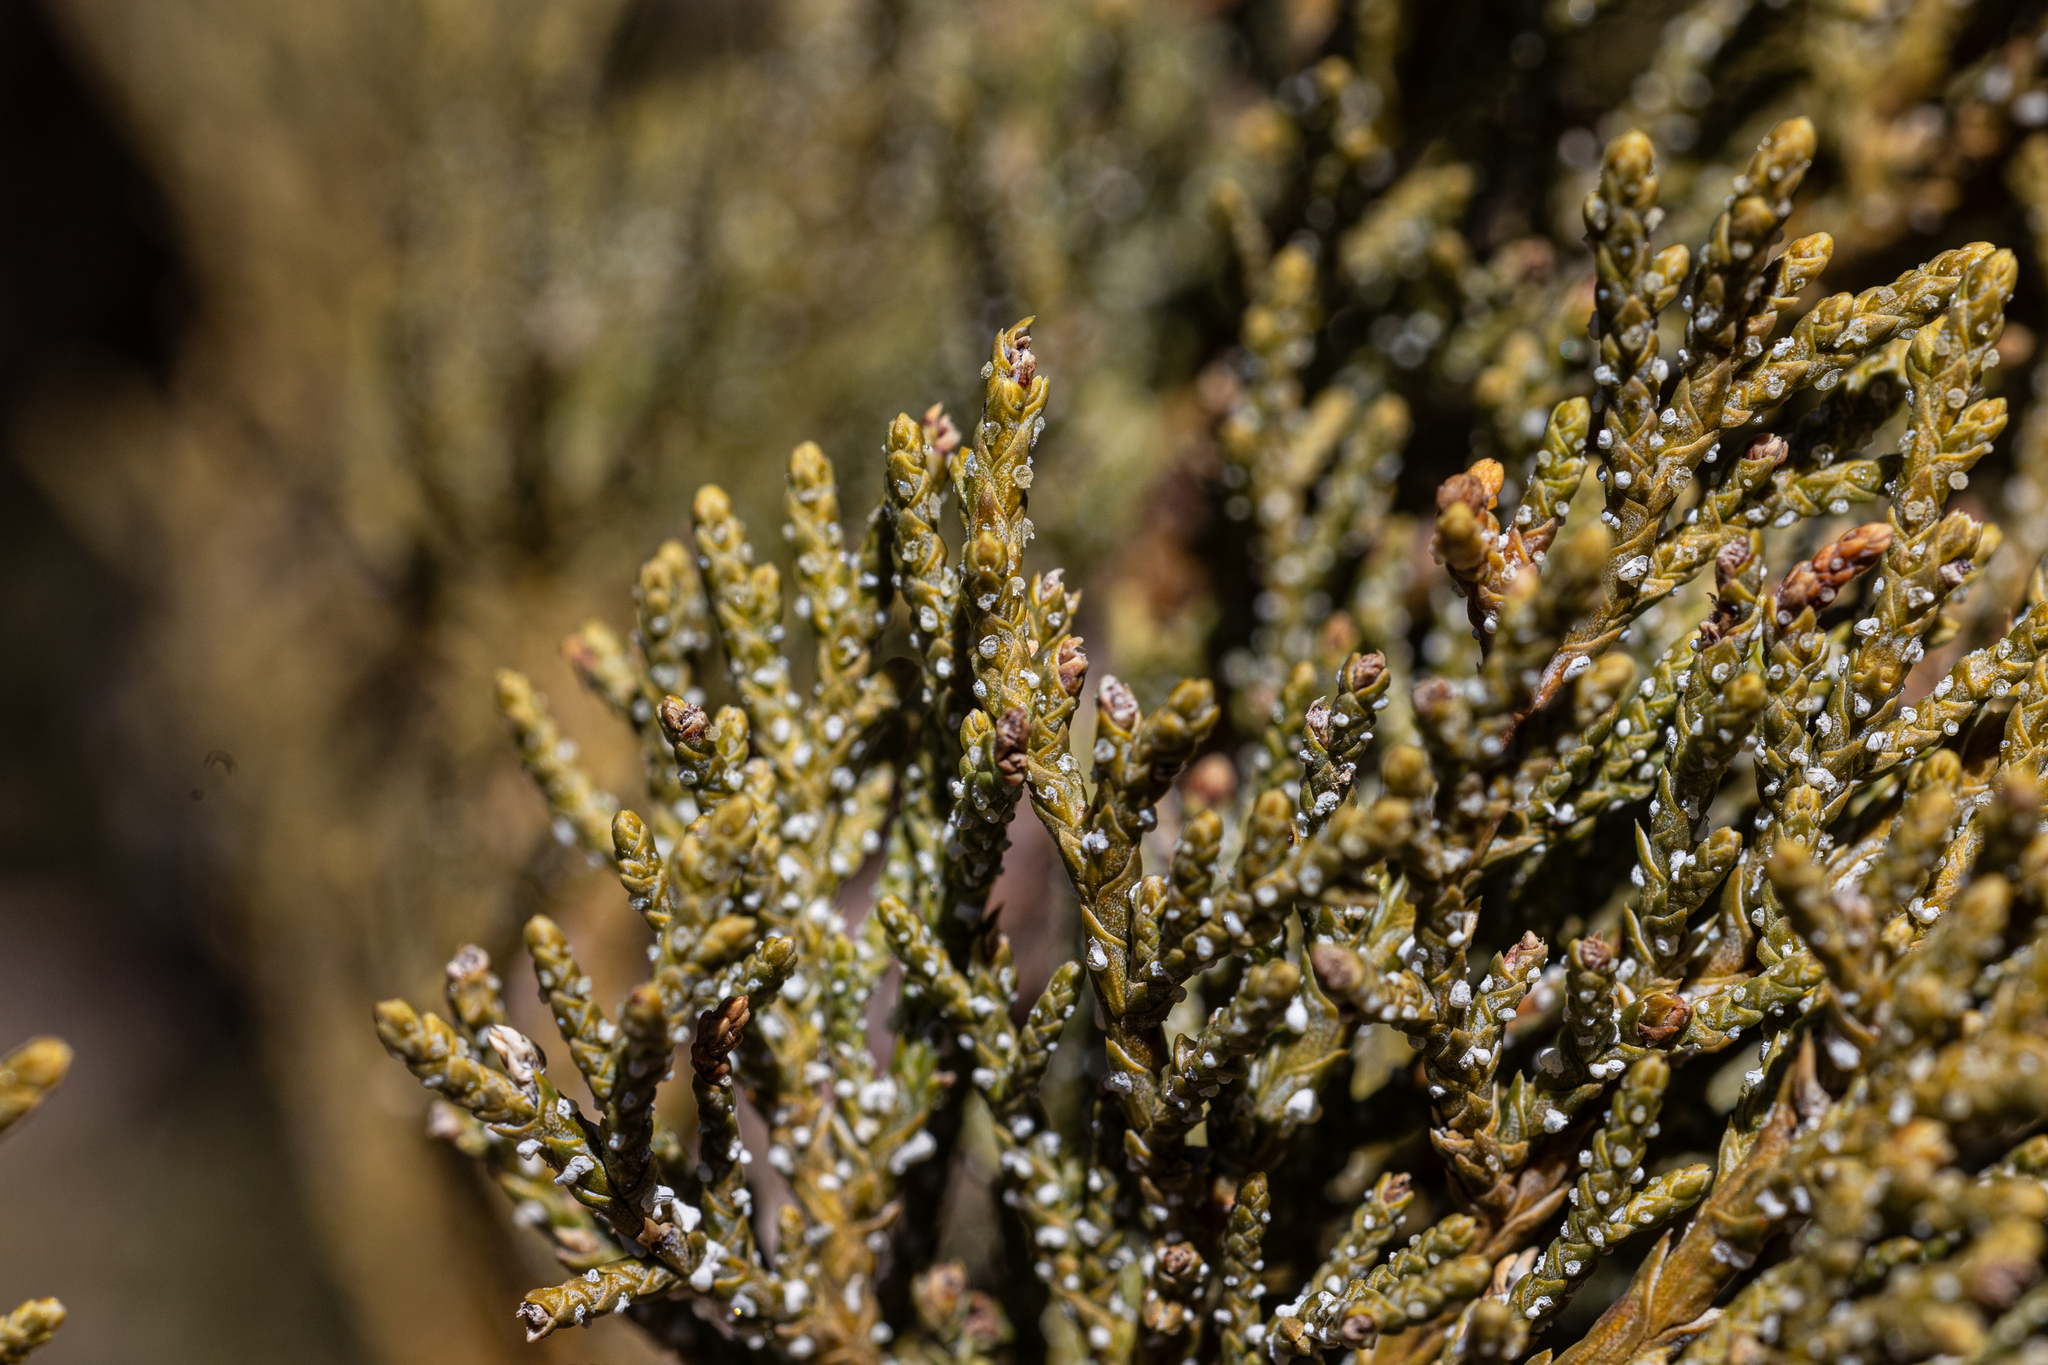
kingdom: Plantae
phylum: Tracheophyta
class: Pinopsida
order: Pinales
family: Cupressaceae
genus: Juniperus
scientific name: Juniperus deppeana
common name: Alligator juniper
